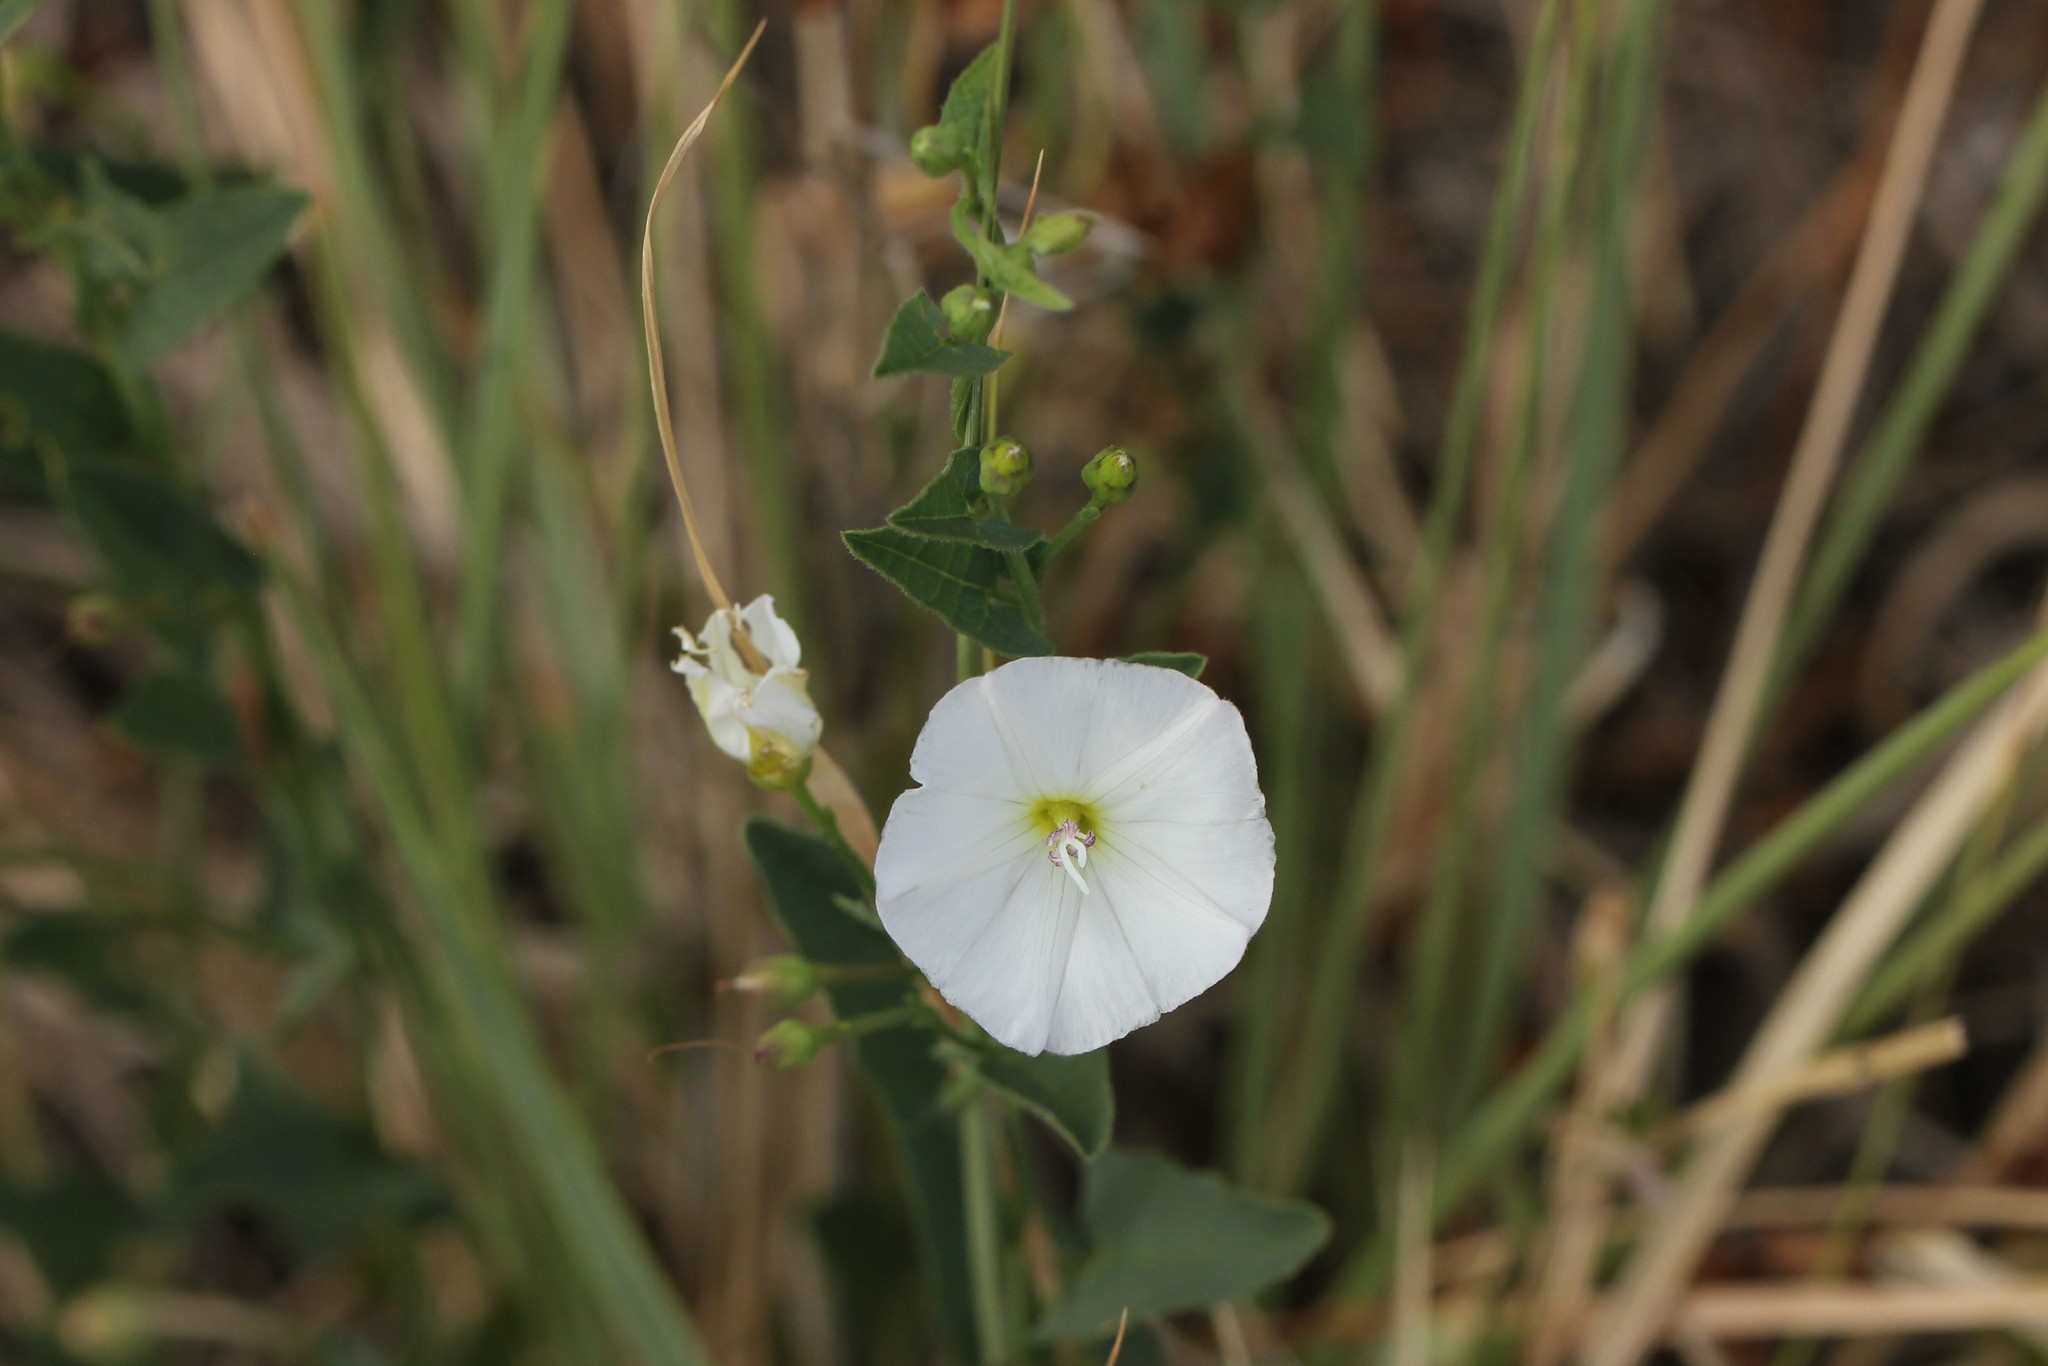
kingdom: Plantae
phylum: Tracheophyta
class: Magnoliopsida
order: Solanales
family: Convolvulaceae
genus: Convolvulus
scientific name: Convolvulus arvensis
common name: Field bindweed
